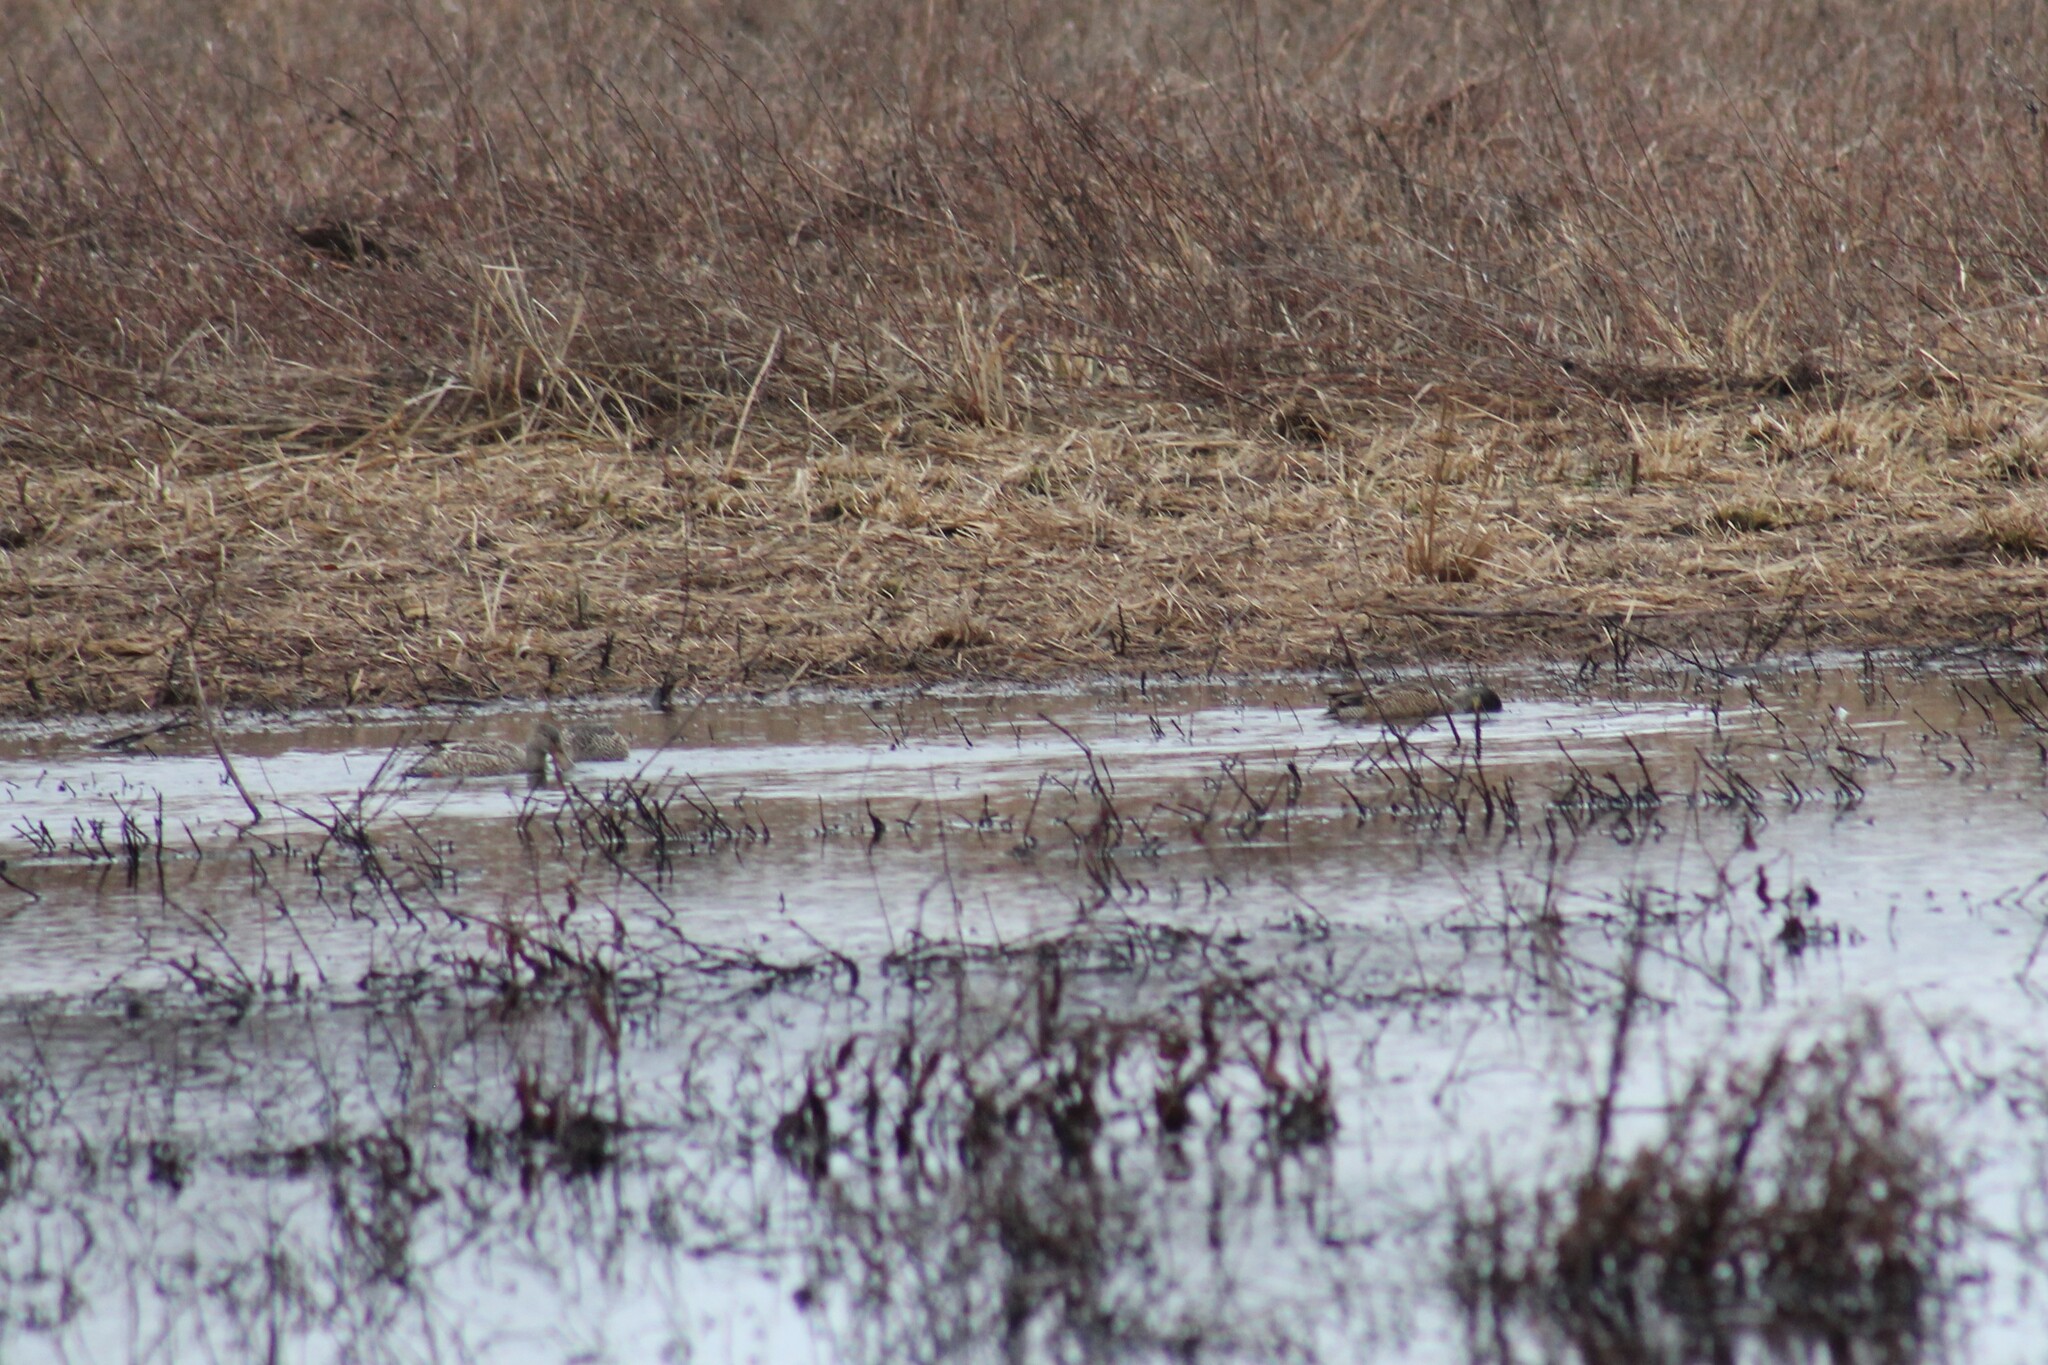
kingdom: Animalia
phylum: Chordata
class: Aves
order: Anseriformes
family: Anatidae
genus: Spatula
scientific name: Spatula clypeata
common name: Northern shoveler
